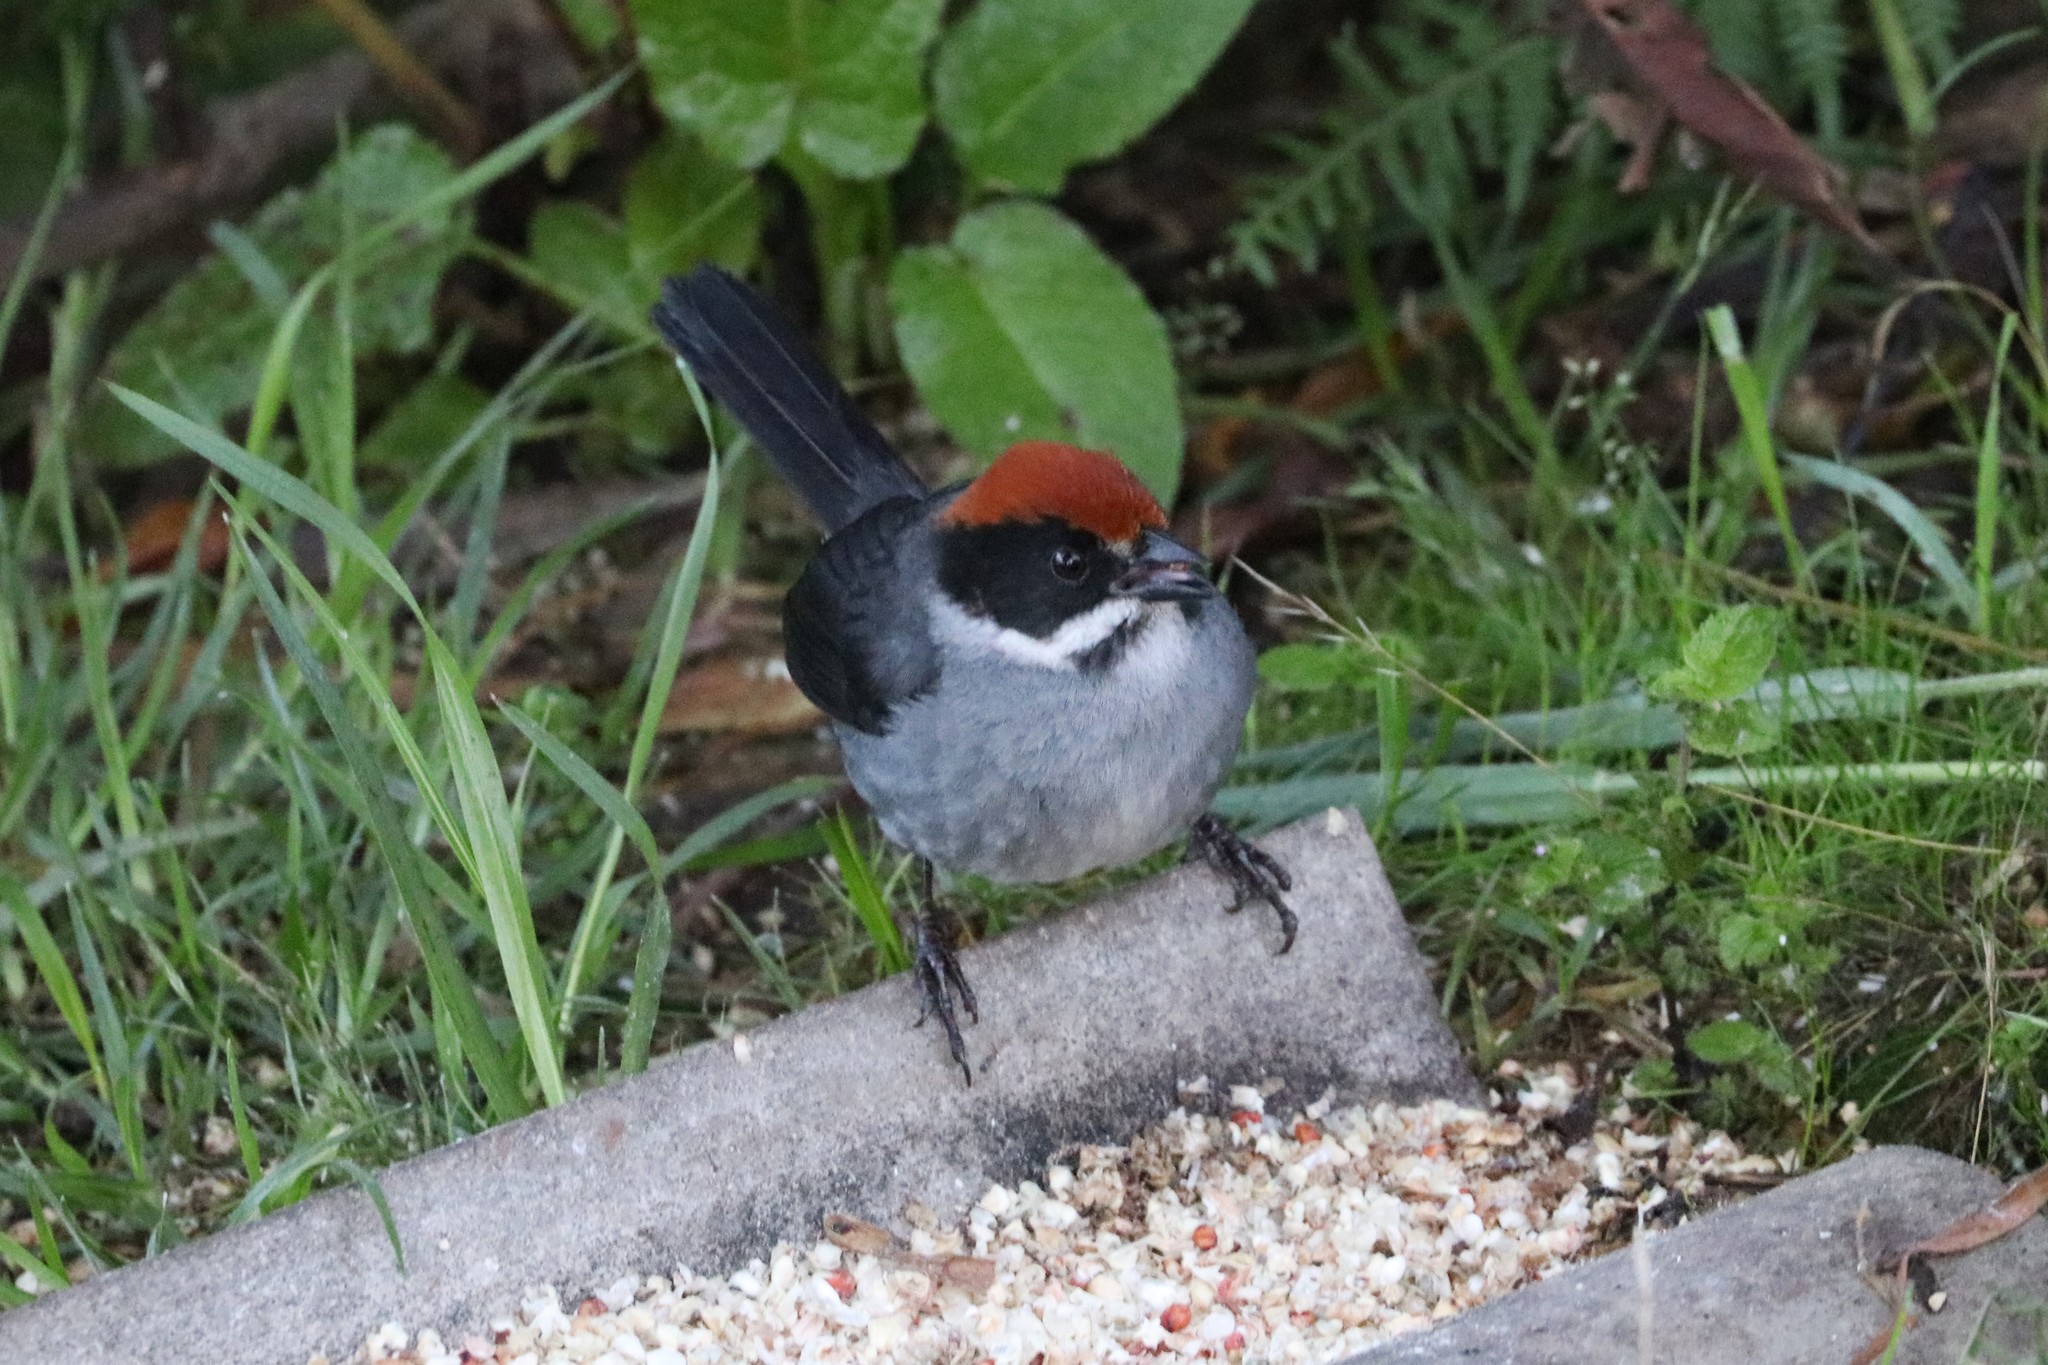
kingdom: Animalia
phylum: Chordata
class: Aves
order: Passeriformes
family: Passerellidae
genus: Atlapetes
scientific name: Atlapetes schistaceus
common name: Slaty brushfinch
